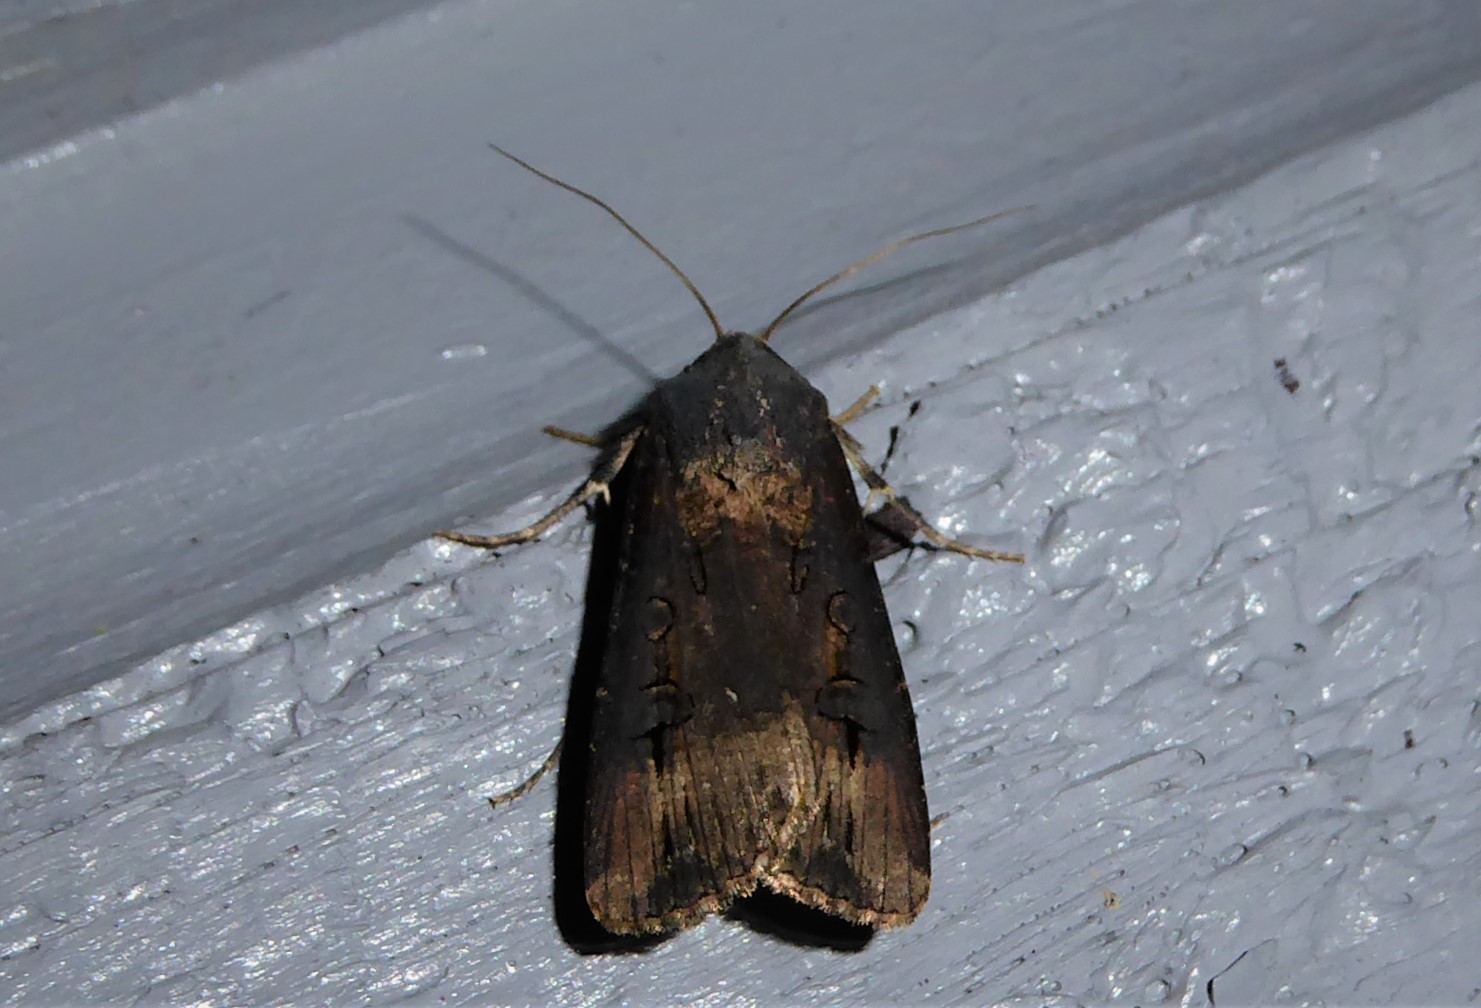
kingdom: Animalia
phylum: Arthropoda
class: Insecta
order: Lepidoptera
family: Noctuidae
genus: Agrotis
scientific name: Agrotis ipsilon
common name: Dark sword-grass
